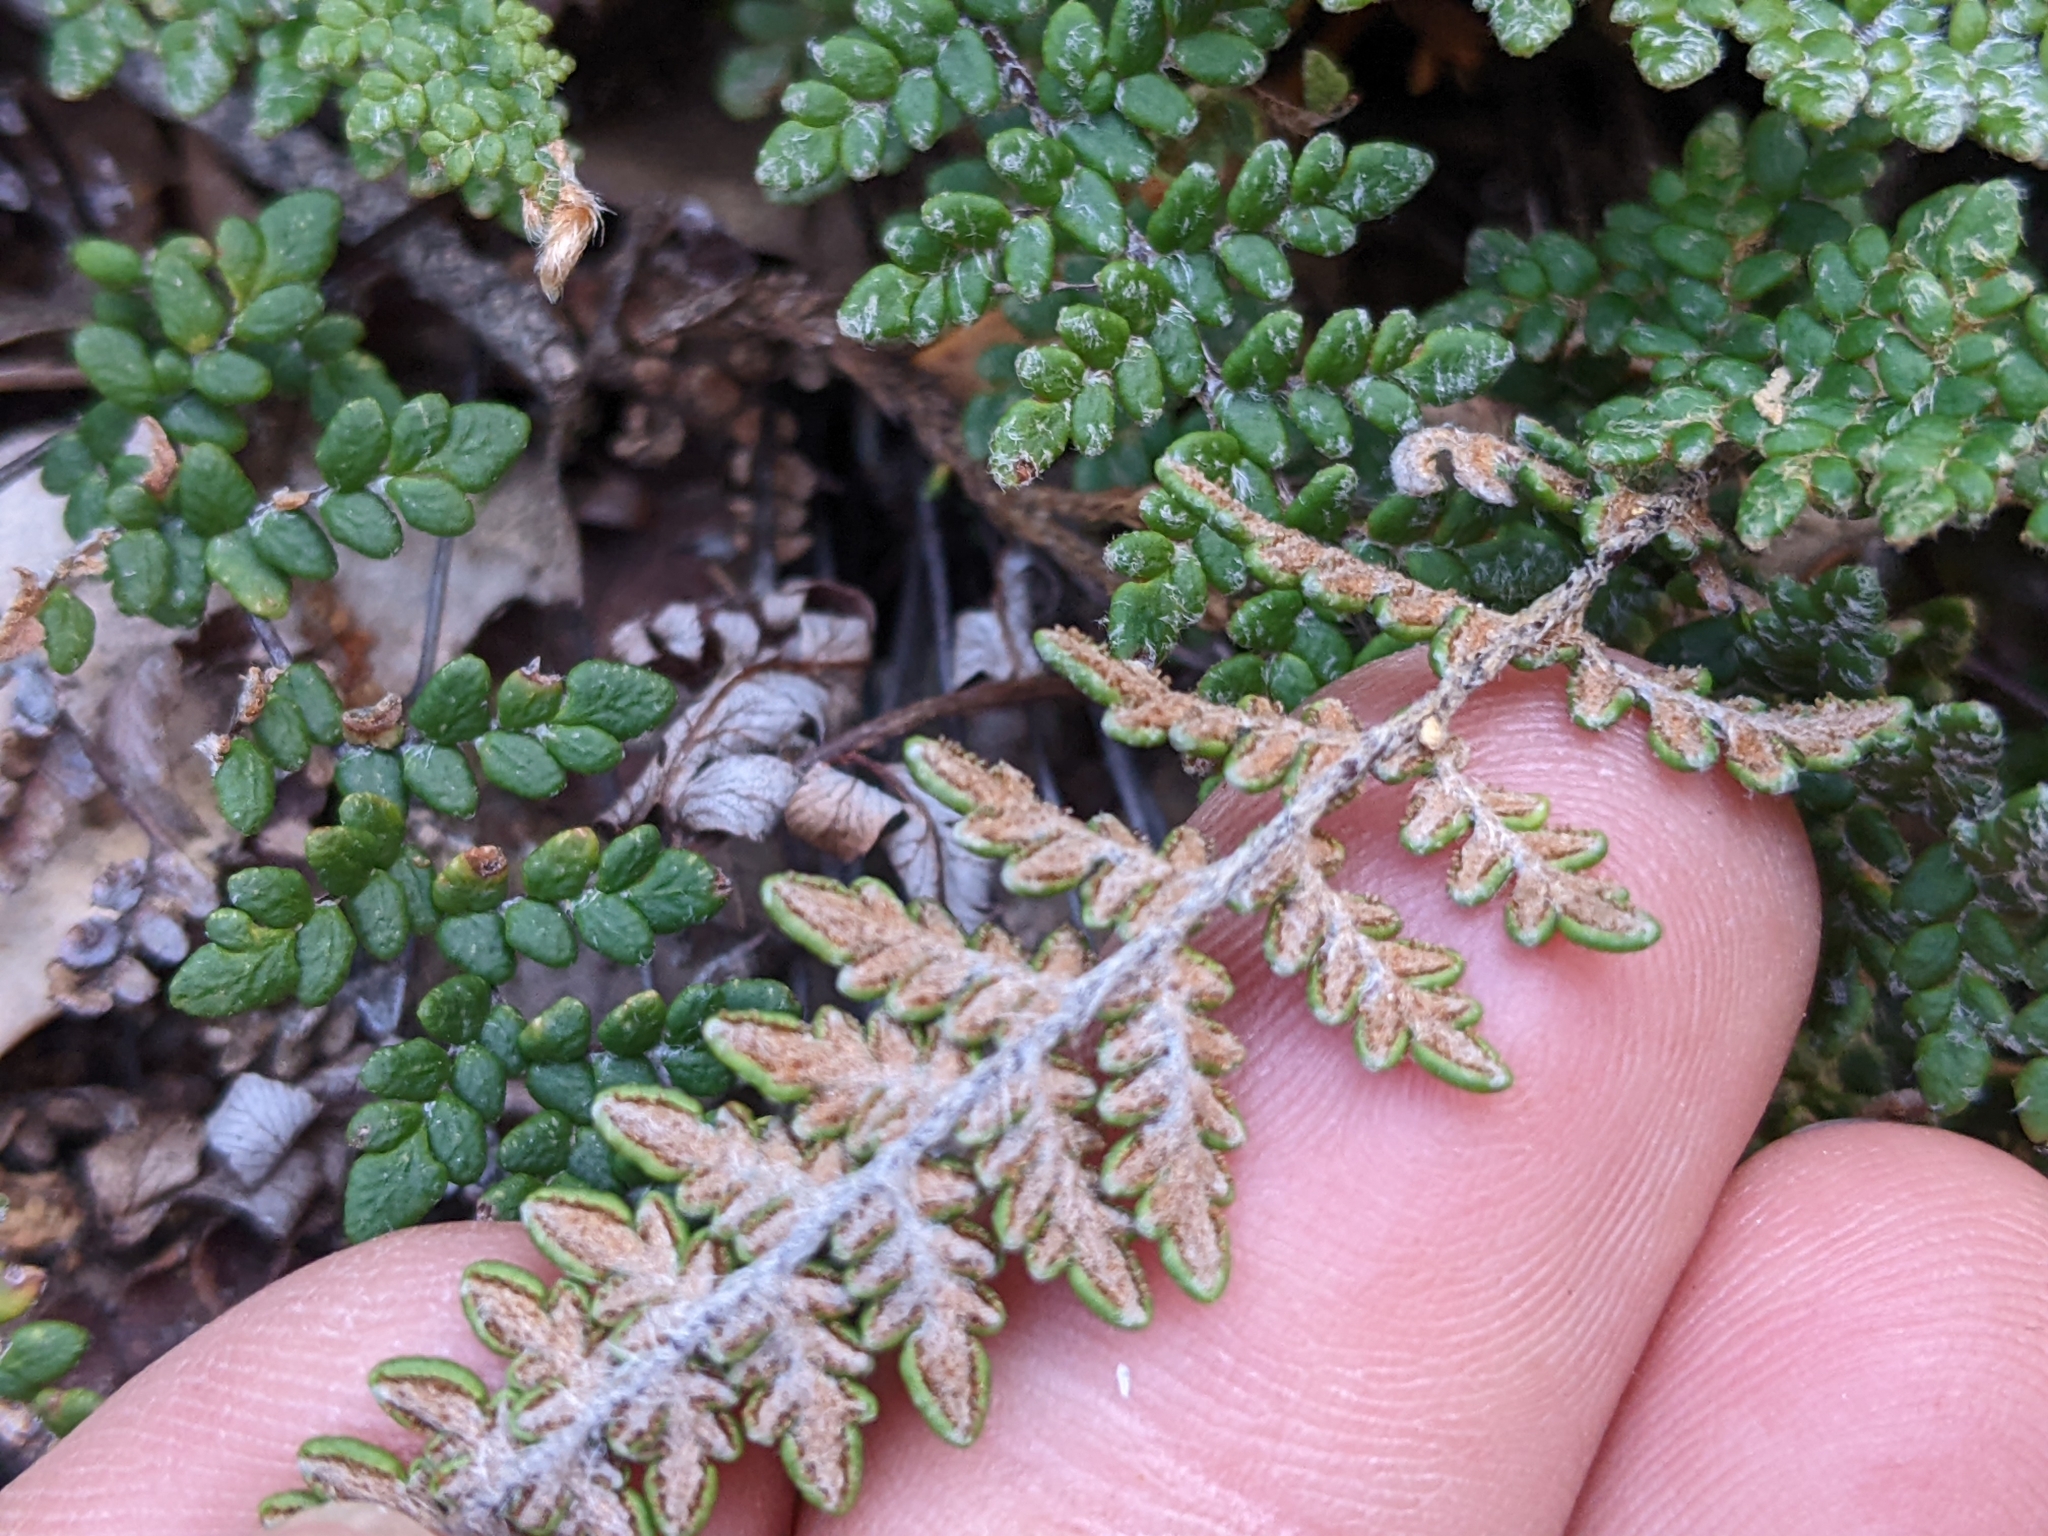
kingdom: Plantae
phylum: Tracheophyta
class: Polypodiopsida
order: Polypodiales
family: Pteridaceae
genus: Myriopteris
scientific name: Myriopteris gracillima
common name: Lace fern
